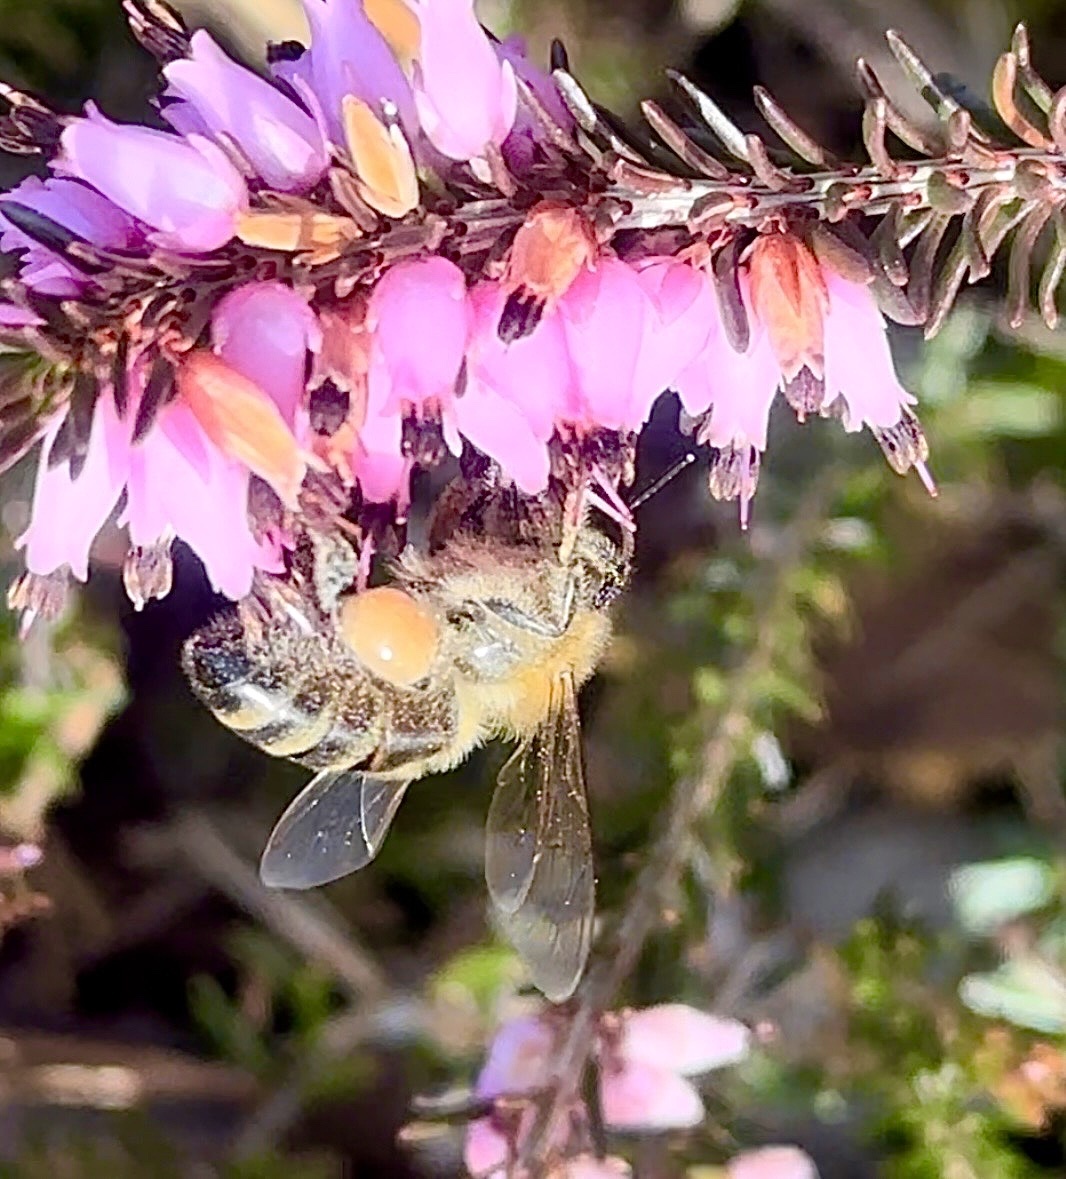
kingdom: Animalia
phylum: Arthropoda
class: Insecta
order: Hymenoptera
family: Apidae
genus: Apis
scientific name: Apis mellifera
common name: Honey bee
